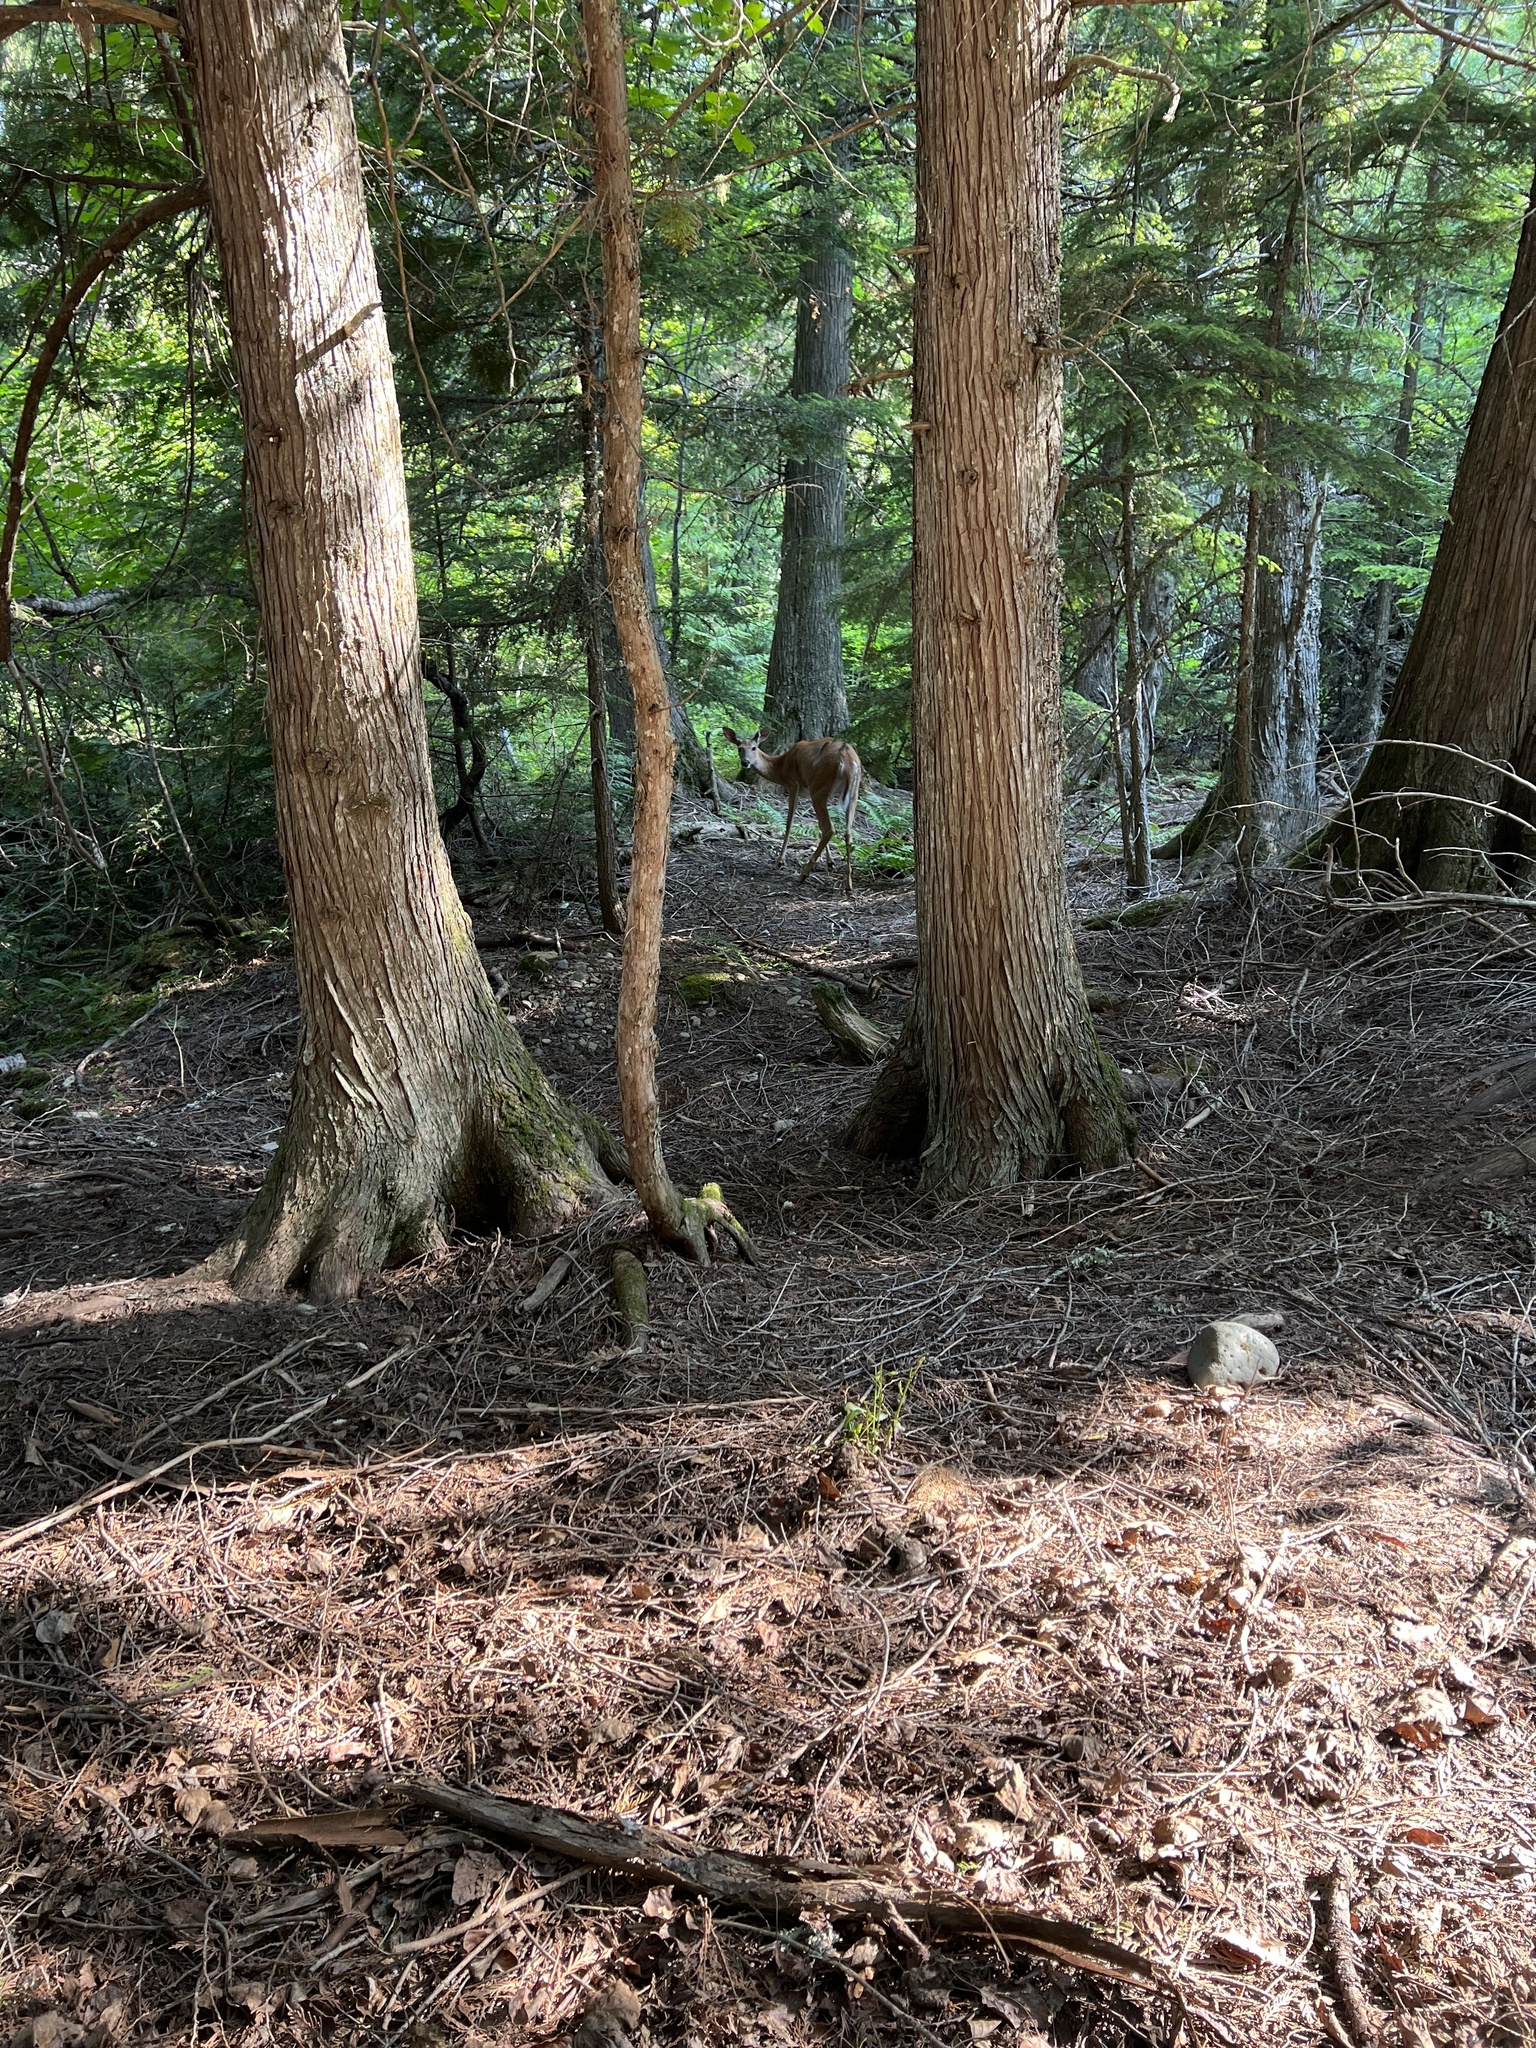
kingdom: Animalia
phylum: Chordata
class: Mammalia
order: Artiodactyla
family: Cervidae
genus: Odocoileus
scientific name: Odocoileus virginianus
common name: White-tailed deer
